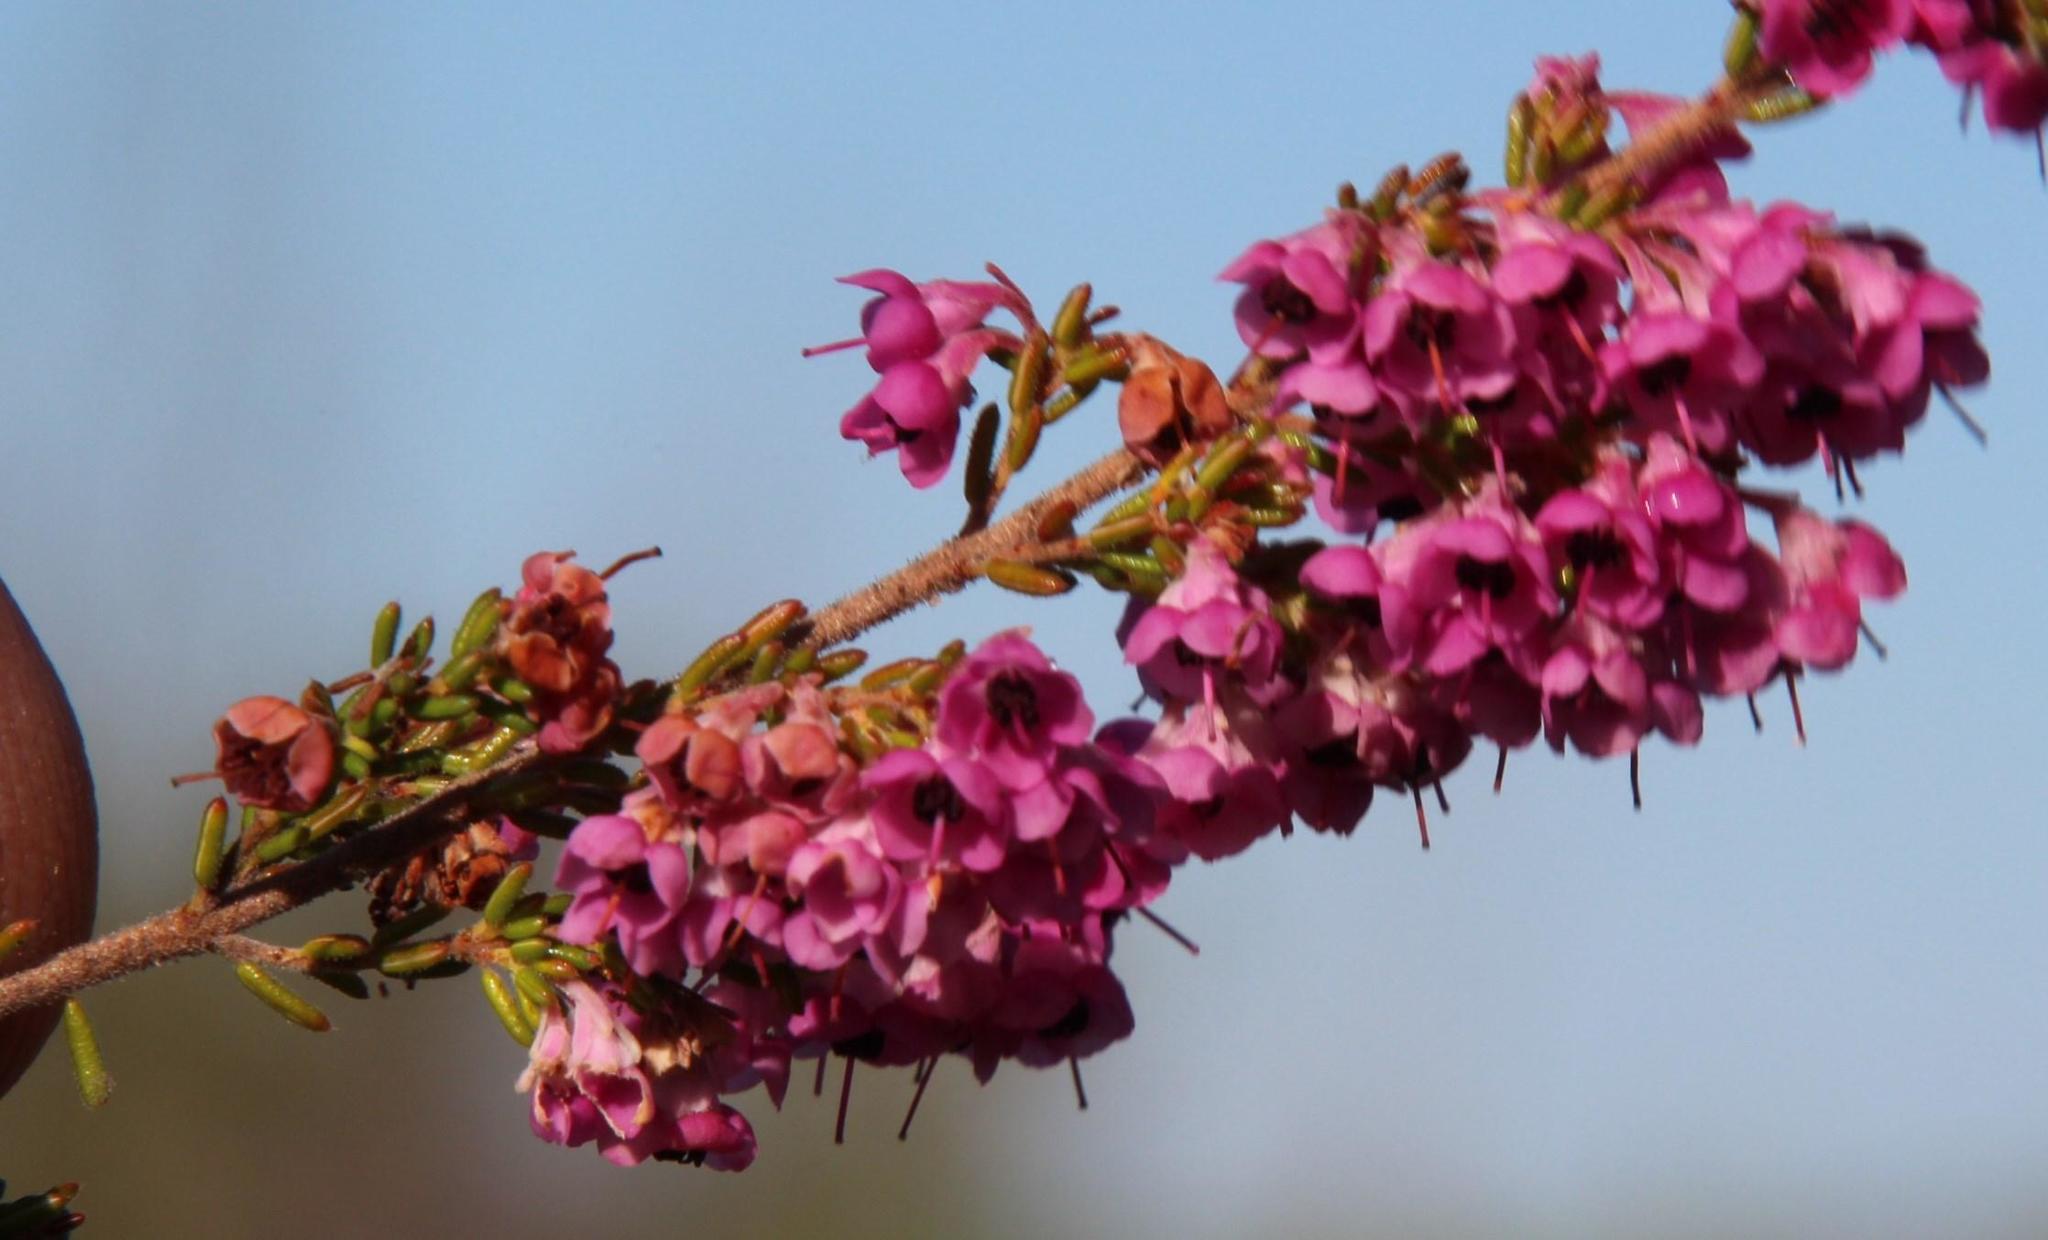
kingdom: Plantae
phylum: Tracheophyta
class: Magnoliopsida
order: Ericales
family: Ericaceae
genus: Erica
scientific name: Erica melanthera
